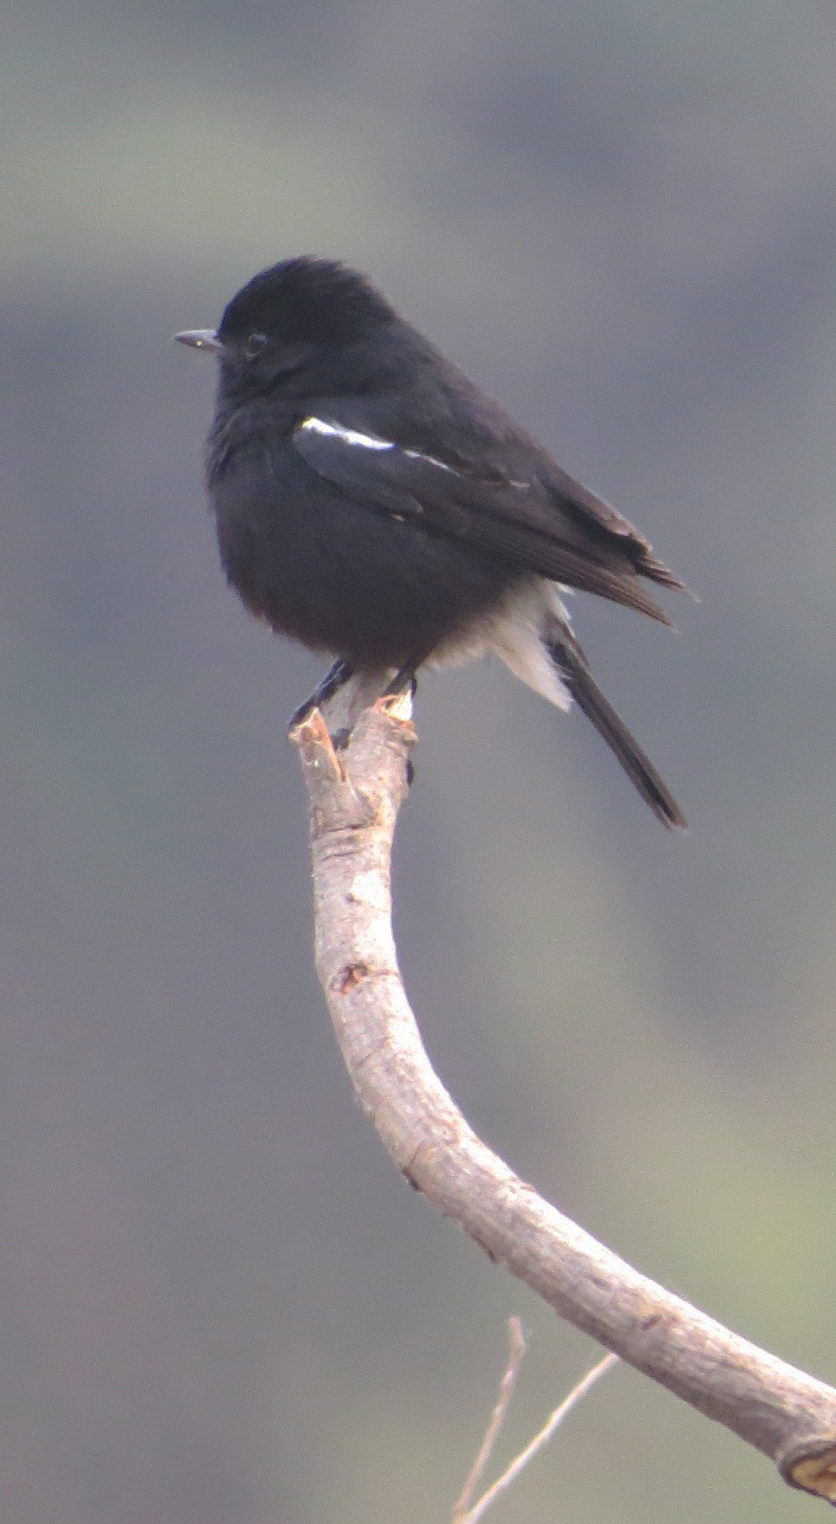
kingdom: Animalia
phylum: Chordata
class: Aves
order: Passeriformes
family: Muscicapidae
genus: Saxicola
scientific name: Saxicola caprata
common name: Pied bush chat
